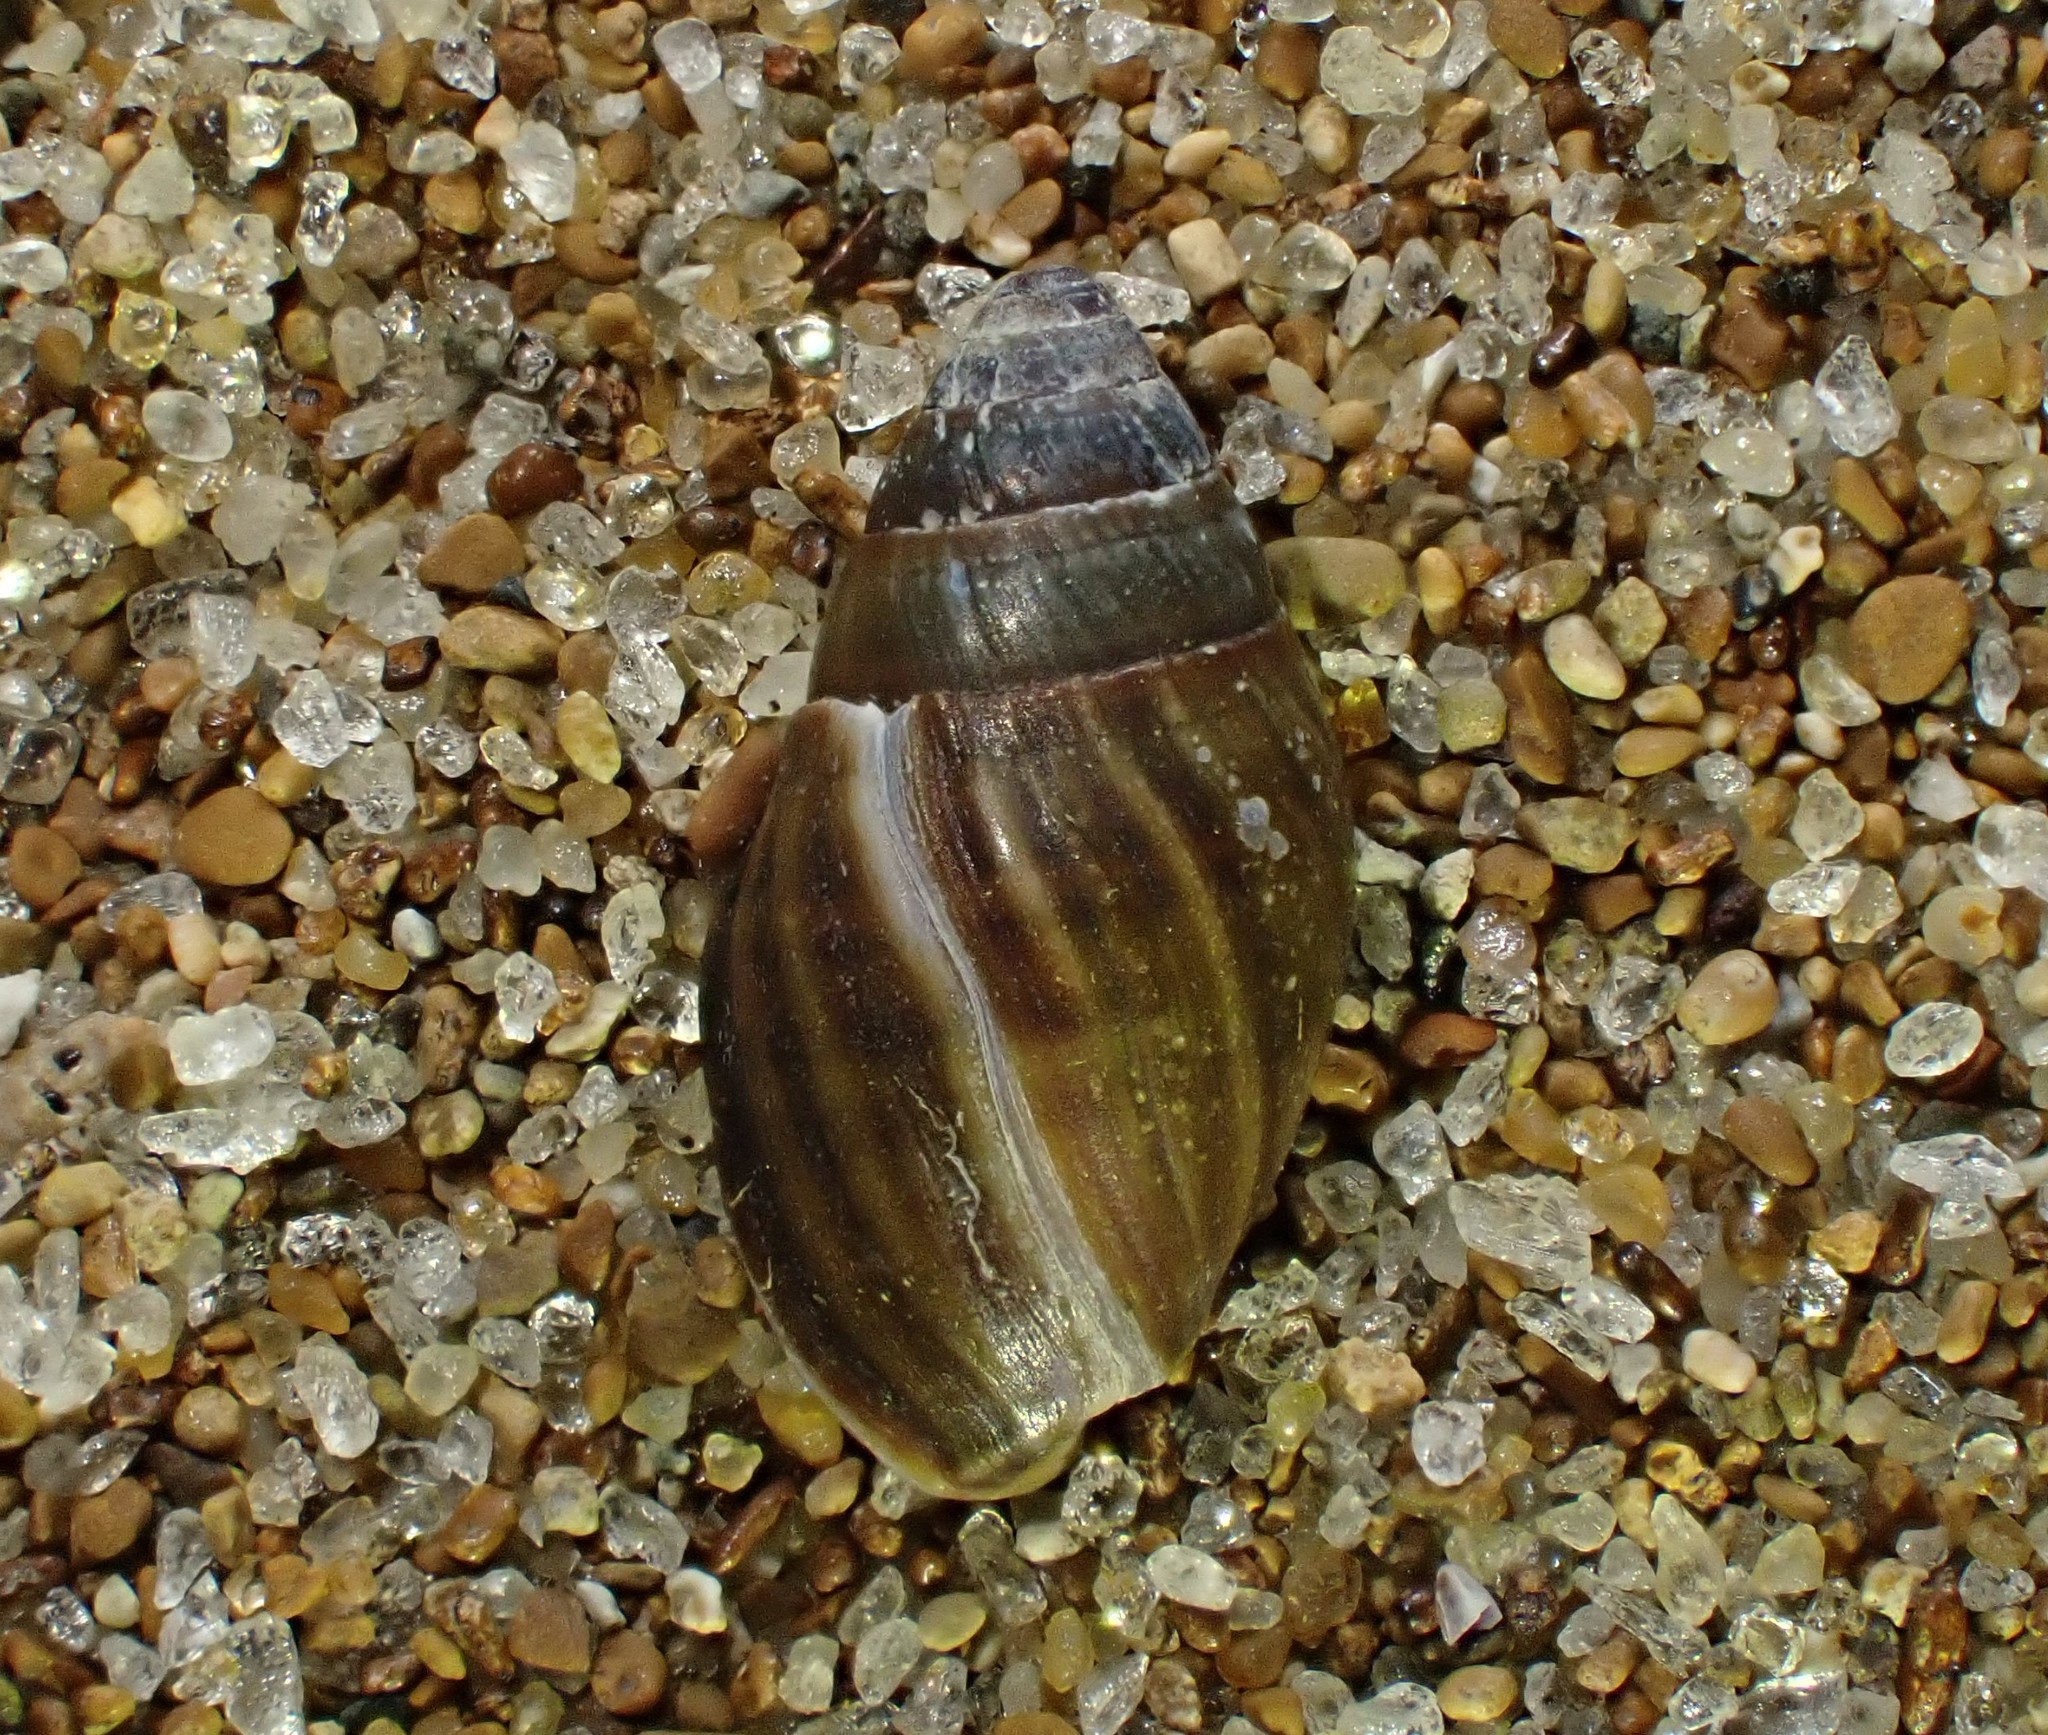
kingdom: Animalia
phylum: Mollusca
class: Gastropoda
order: Ellobiida
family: Ellobiidae
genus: Pleuroloba
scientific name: Pleuroloba costellaris
